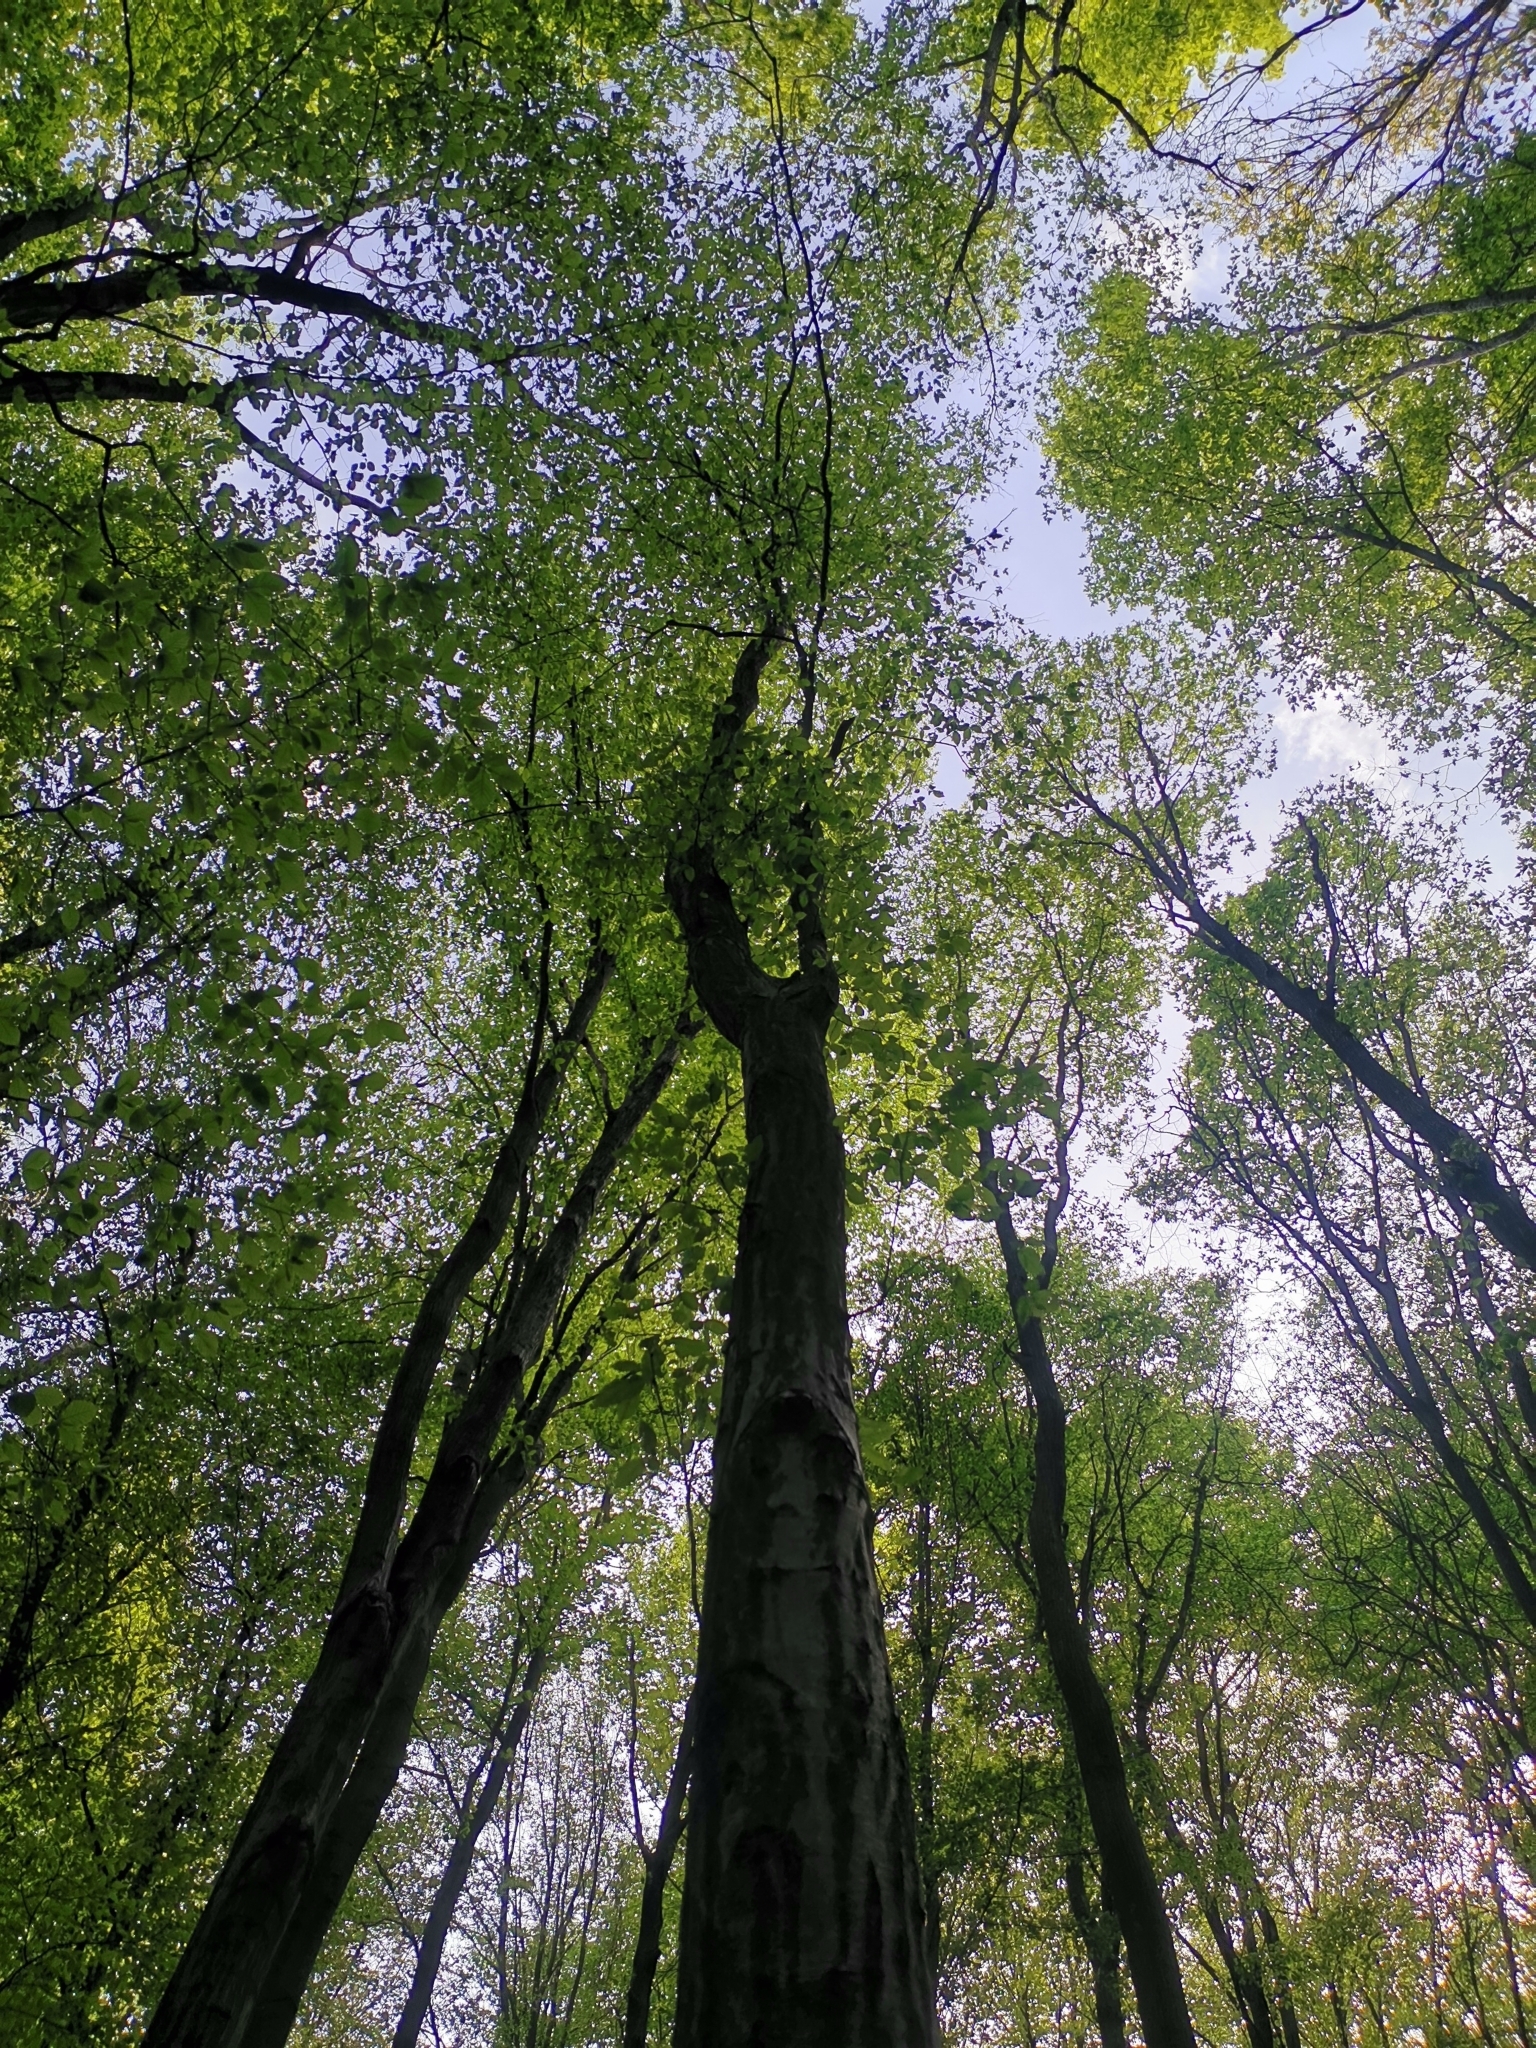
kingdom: Plantae
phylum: Tracheophyta
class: Magnoliopsida
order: Fagales
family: Betulaceae
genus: Carpinus
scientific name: Carpinus betulus
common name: Hornbeam
